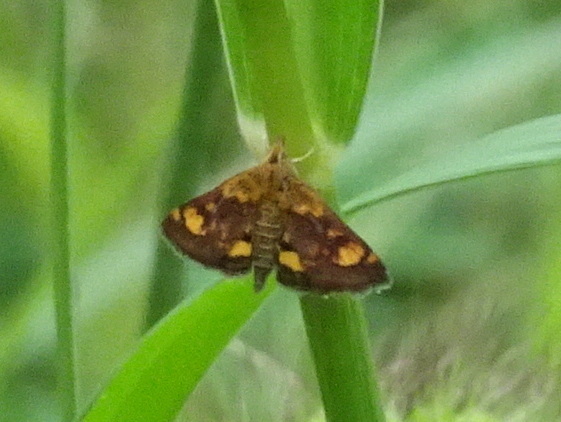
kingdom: Animalia
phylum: Arthropoda
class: Insecta
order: Lepidoptera
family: Crambidae
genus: Pyrausta
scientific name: Pyrausta orphisalis
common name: Orange mint moth
